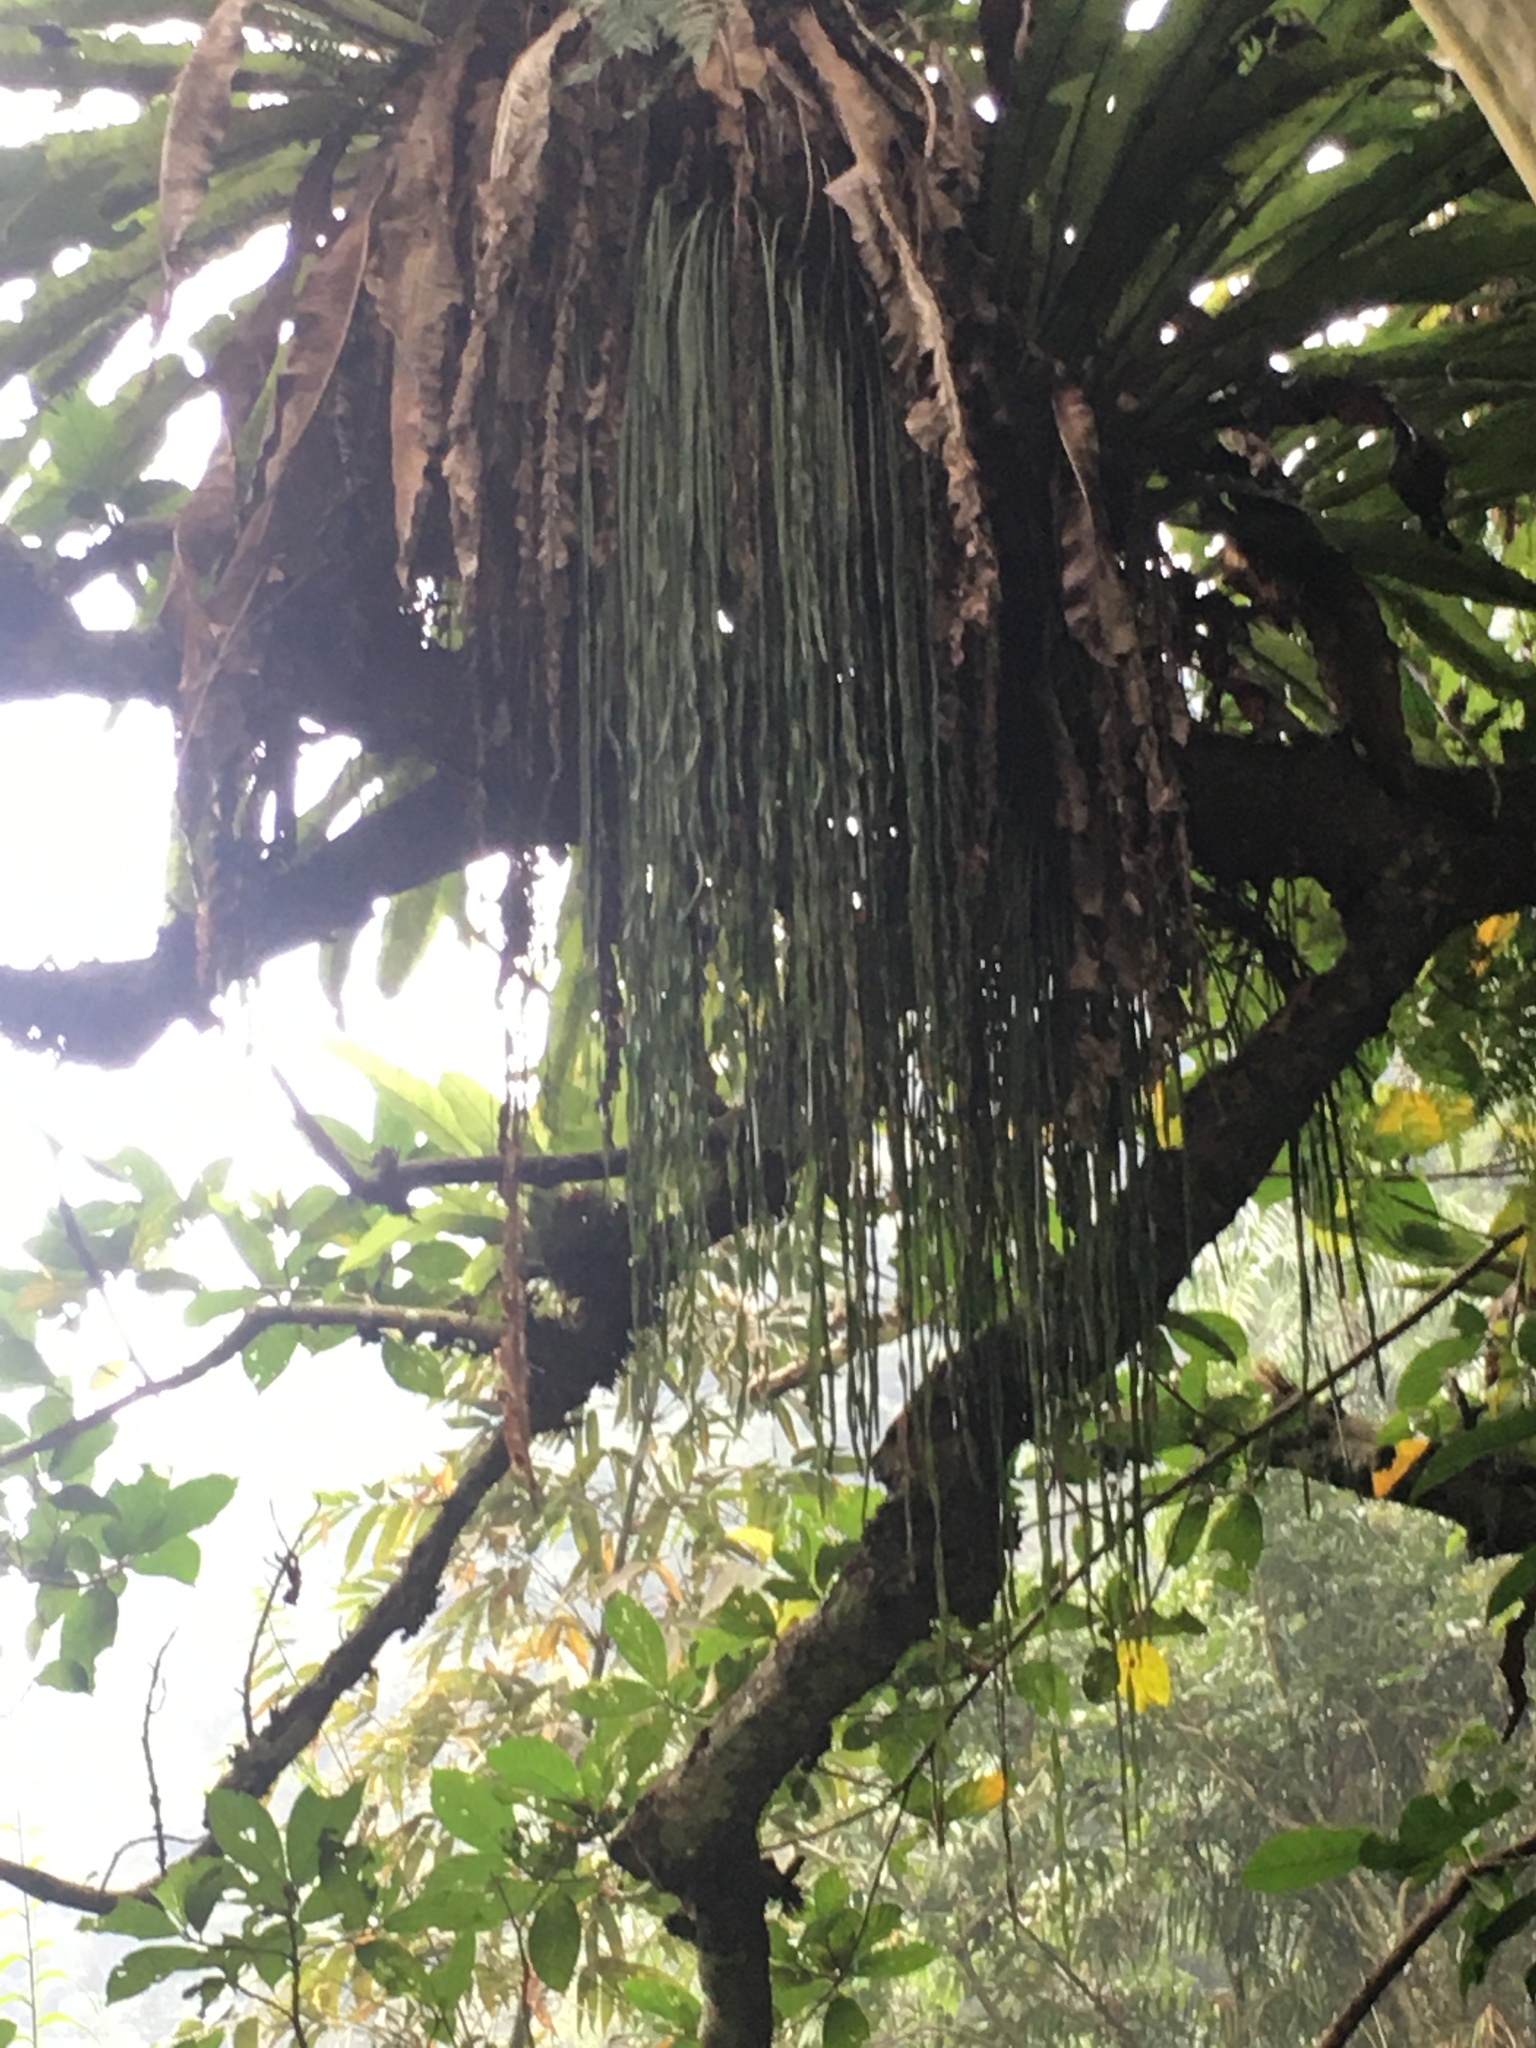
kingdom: Plantae
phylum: Tracheophyta
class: Polypodiopsida
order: Polypodiales
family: Pteridaceae
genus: Haplopteris
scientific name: Haplopteris elongata
